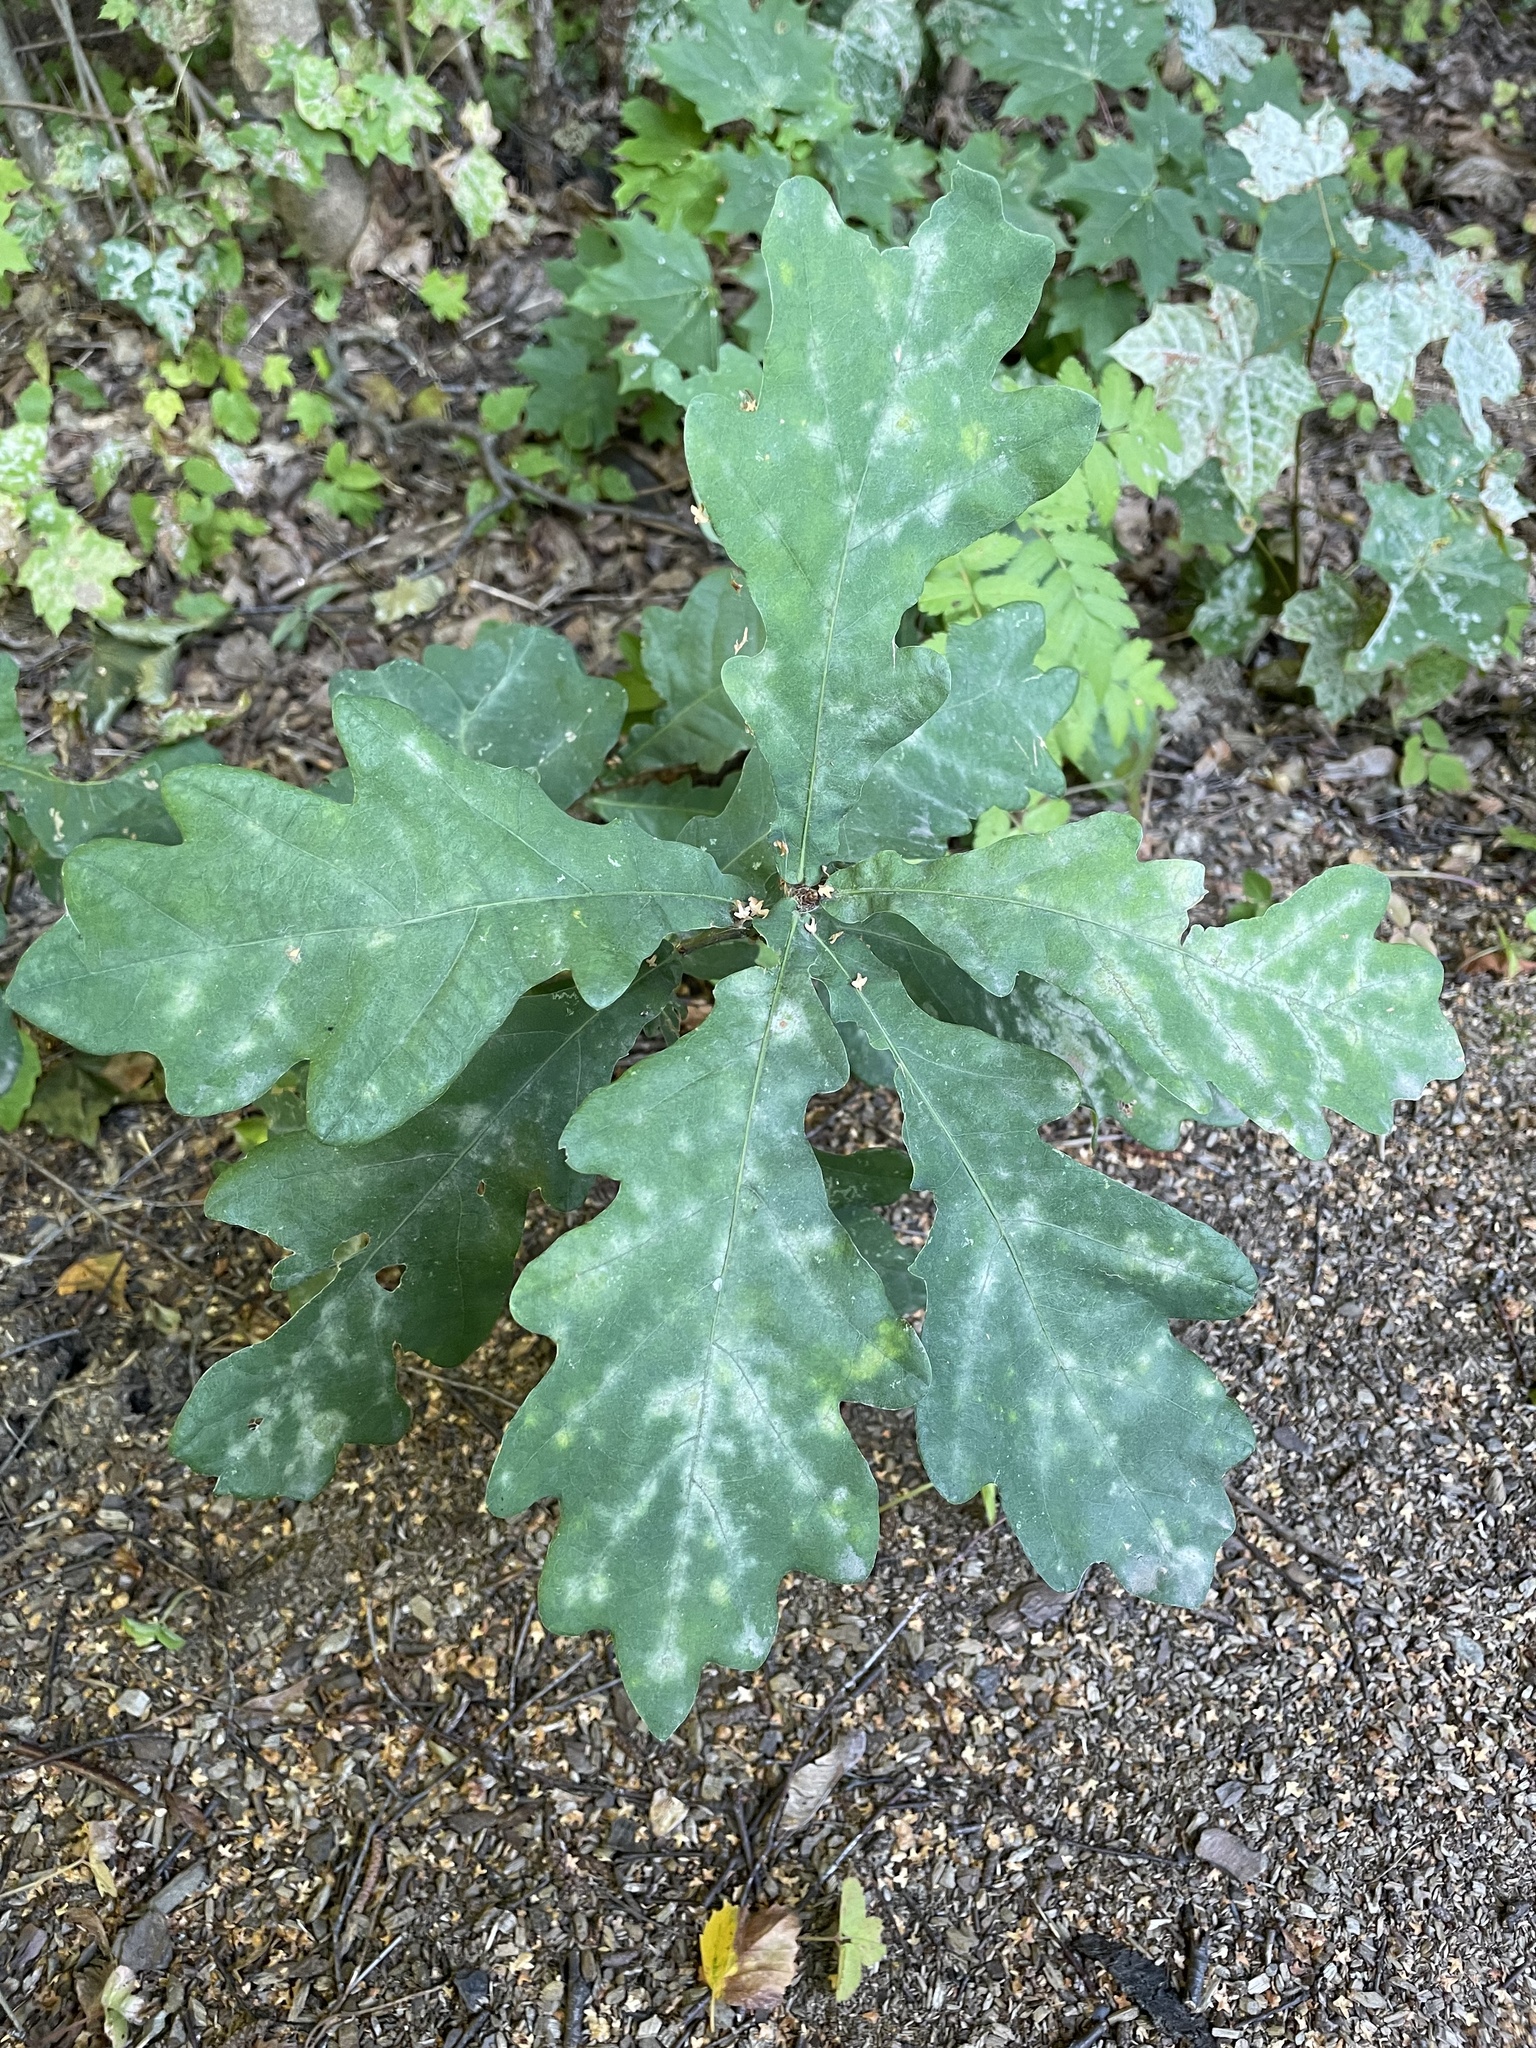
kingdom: Fungi
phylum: Ascomycota
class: Leotiomycetes
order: Helotiales
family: Erysiphaceae
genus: Erysiphe
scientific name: Erysiphe alphitoides
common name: Oak mildew
